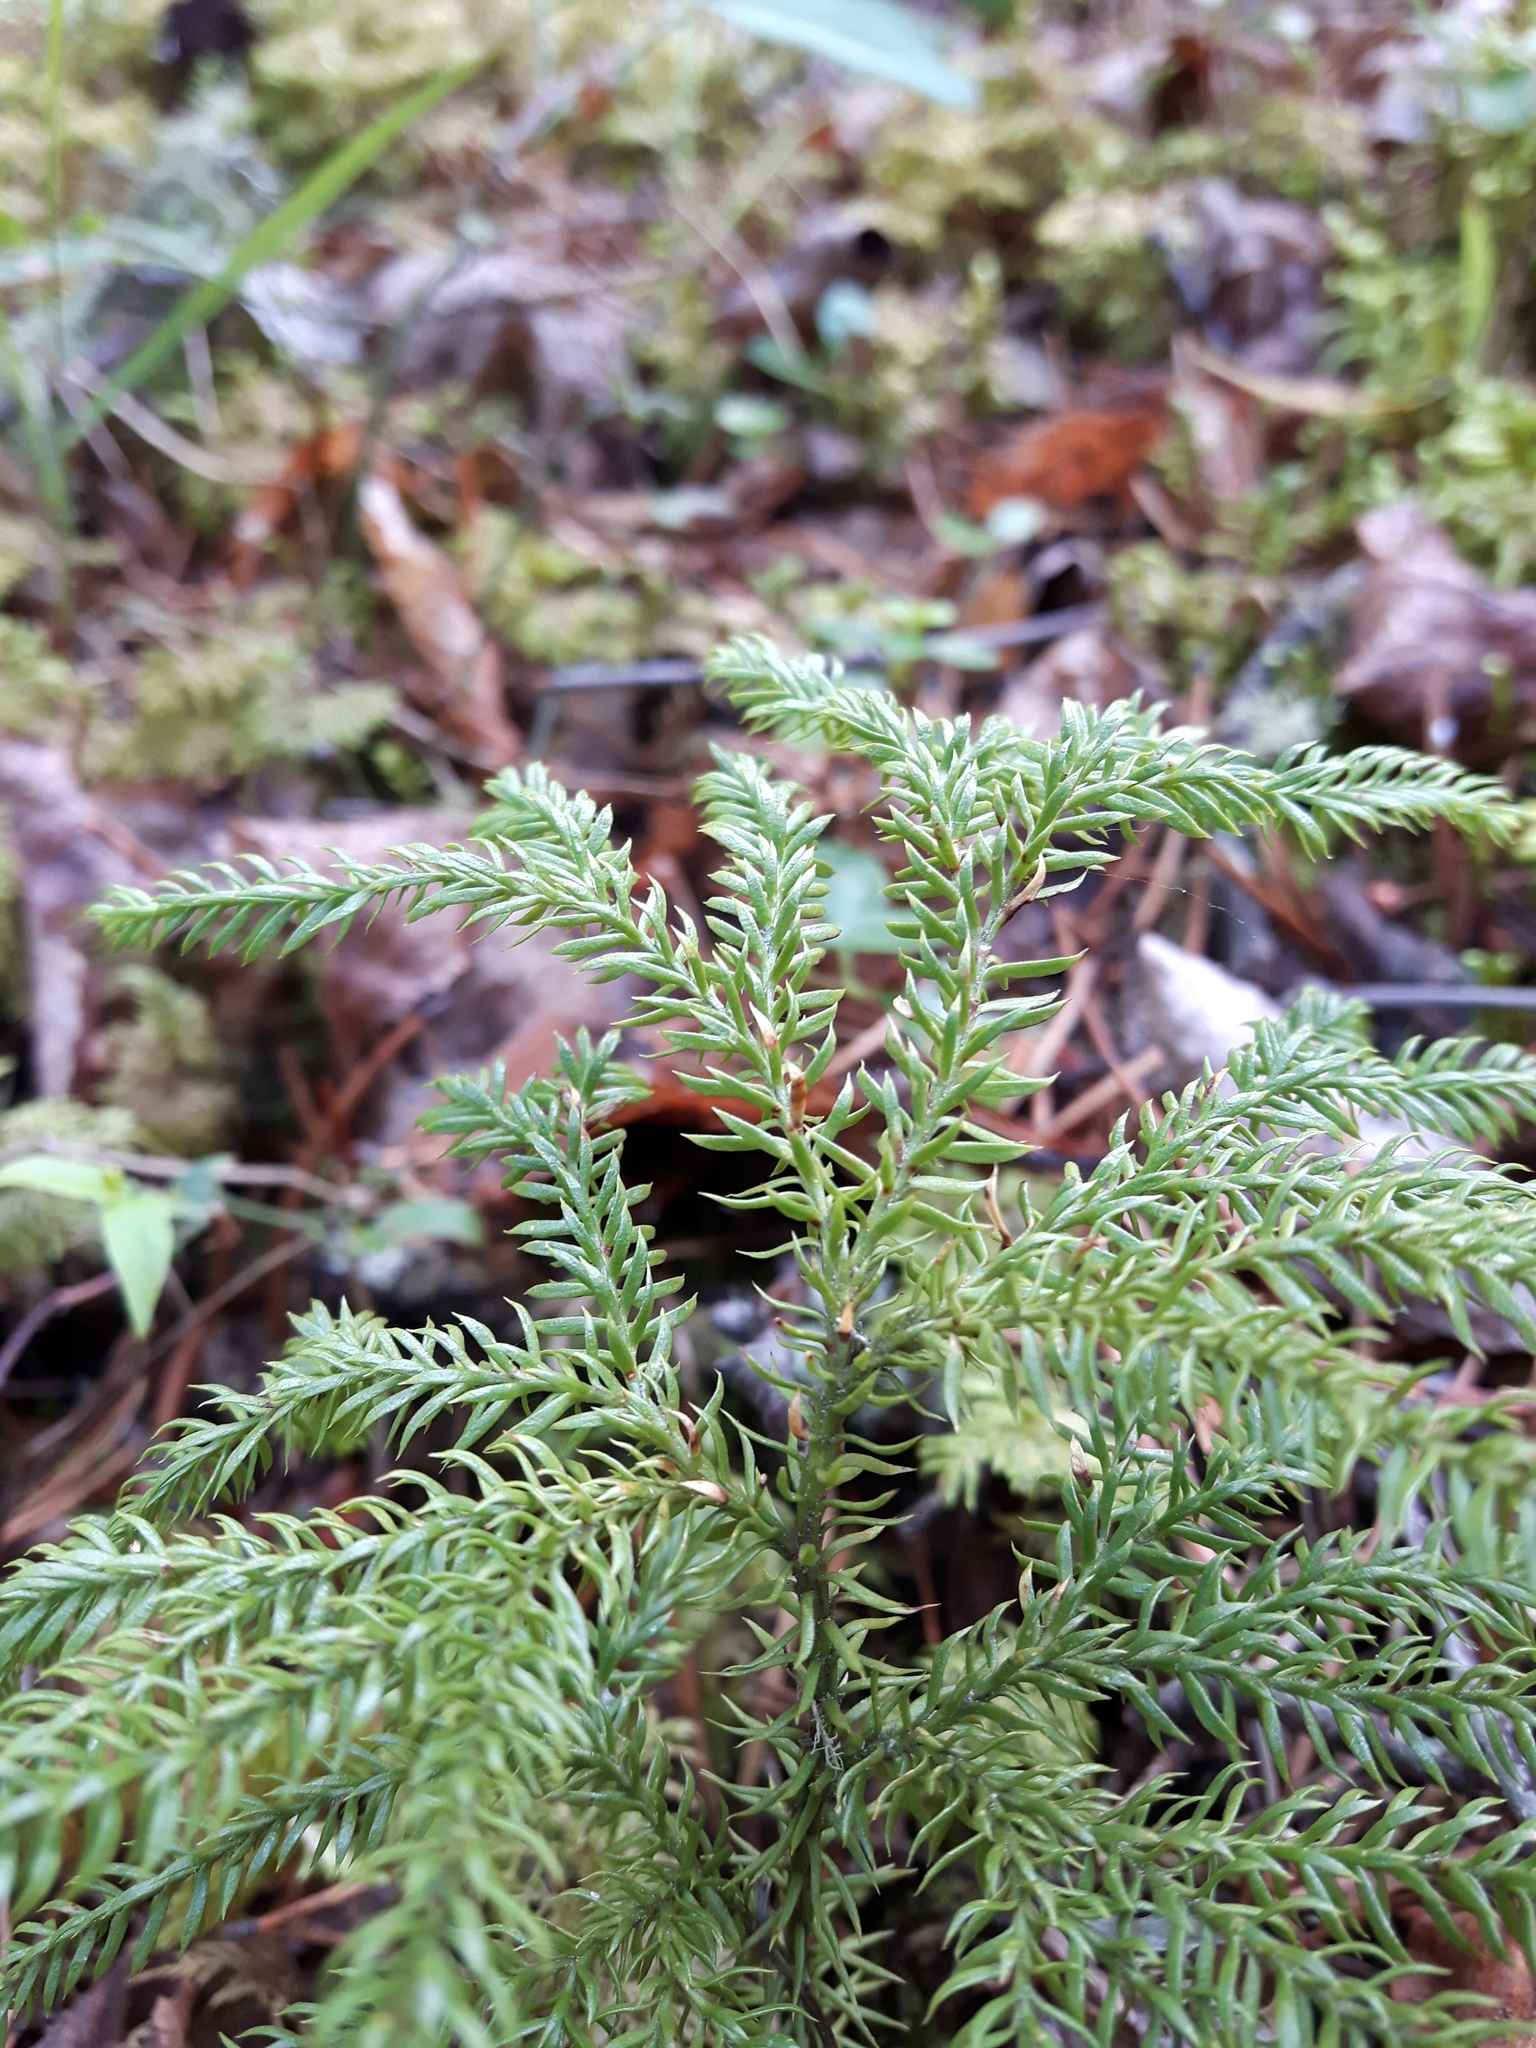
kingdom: Plantae
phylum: Tracheophyta
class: Lycopodiopsida
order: Lycopodiales
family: Lycopodiaceae
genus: Dendrolycopodium
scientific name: Dendrolycopodium dendroideum
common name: Northern tree-clubmoss
